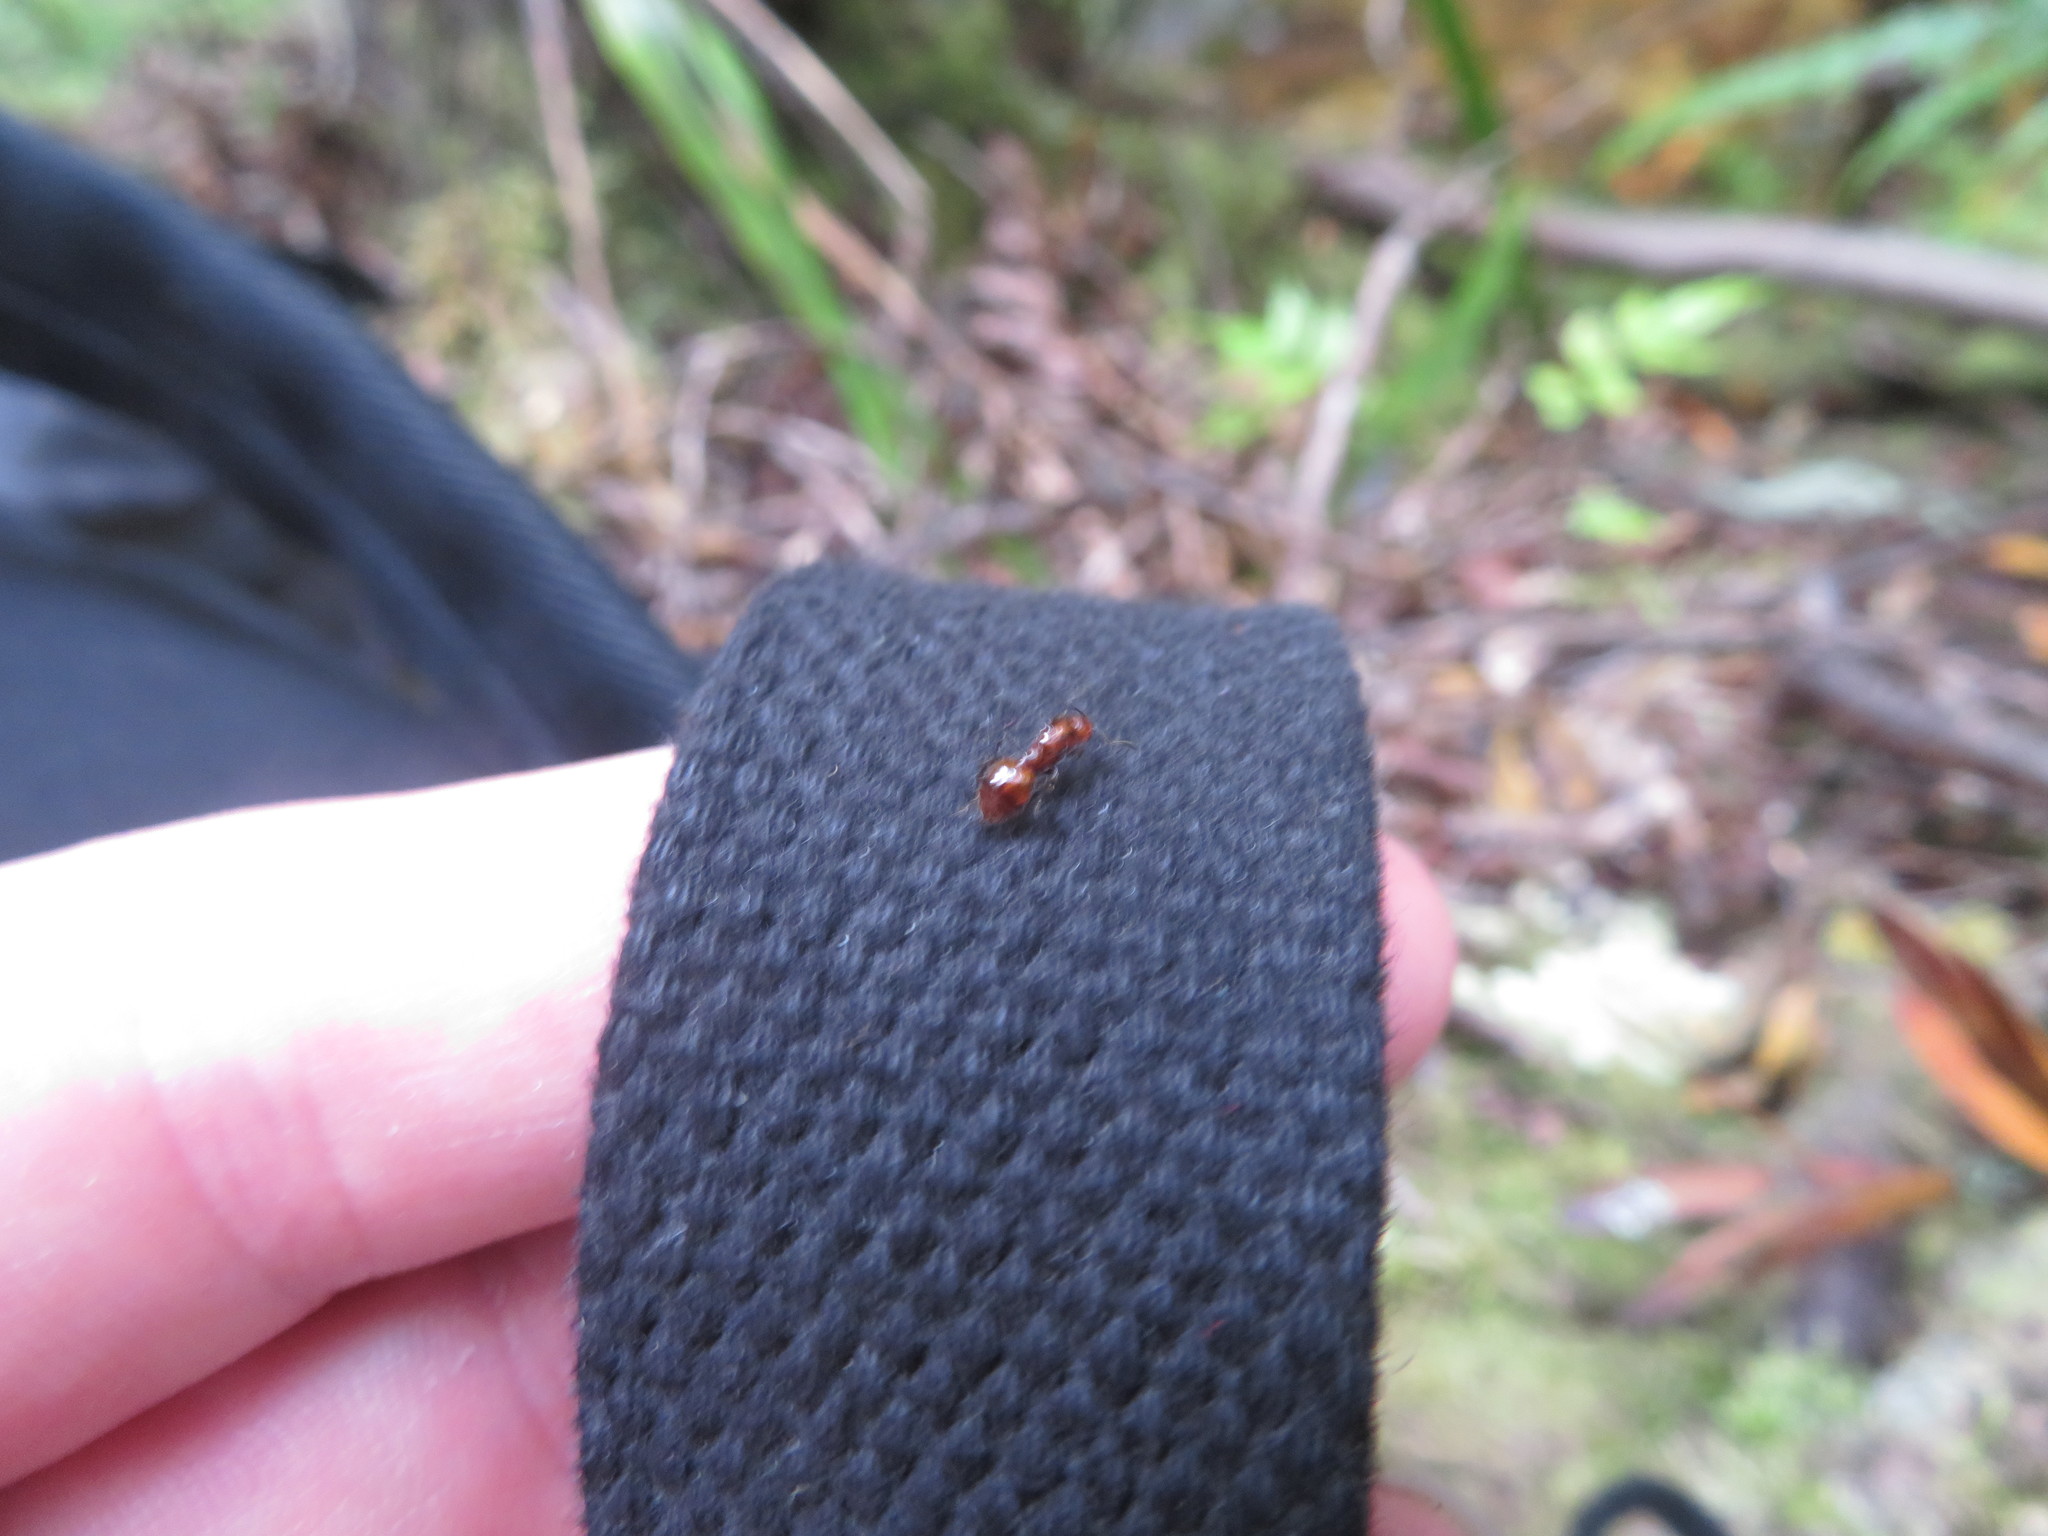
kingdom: Animalia
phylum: Arthropoda
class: Insecta
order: Hymenoptera
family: Formicidae
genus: Monomorium
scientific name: Monomorium antarcticum
